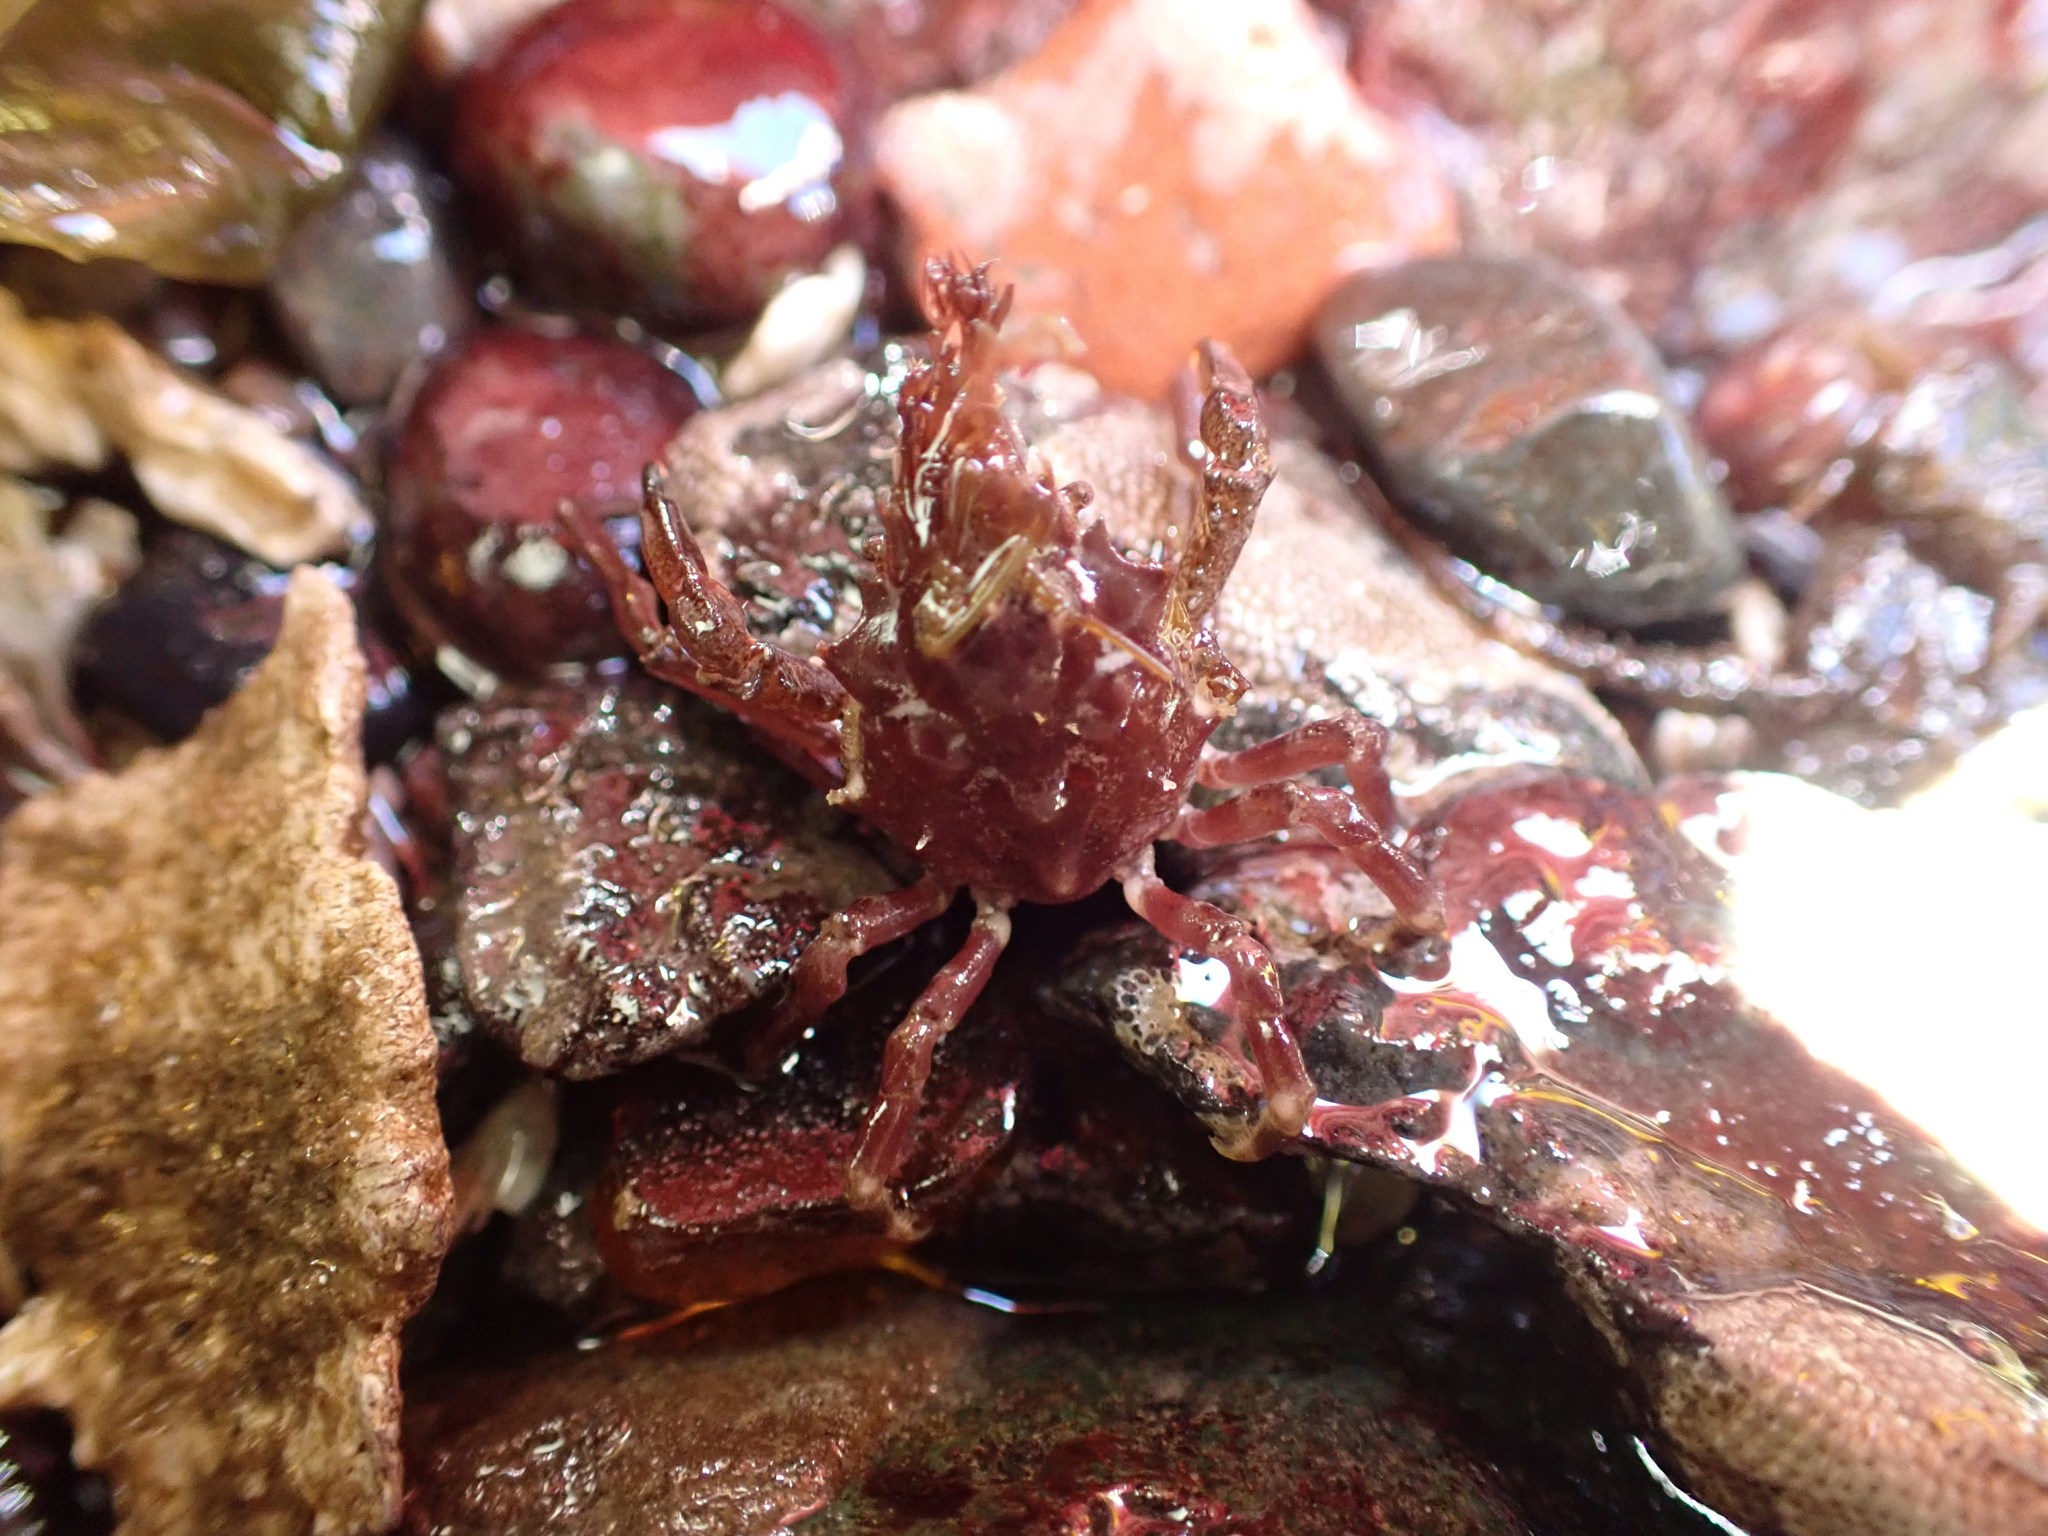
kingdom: Animalia
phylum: Arthropoda
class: Malacostraca
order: Decapoda
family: Epialtidae
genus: Pugettia
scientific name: Pugettia gracilis
